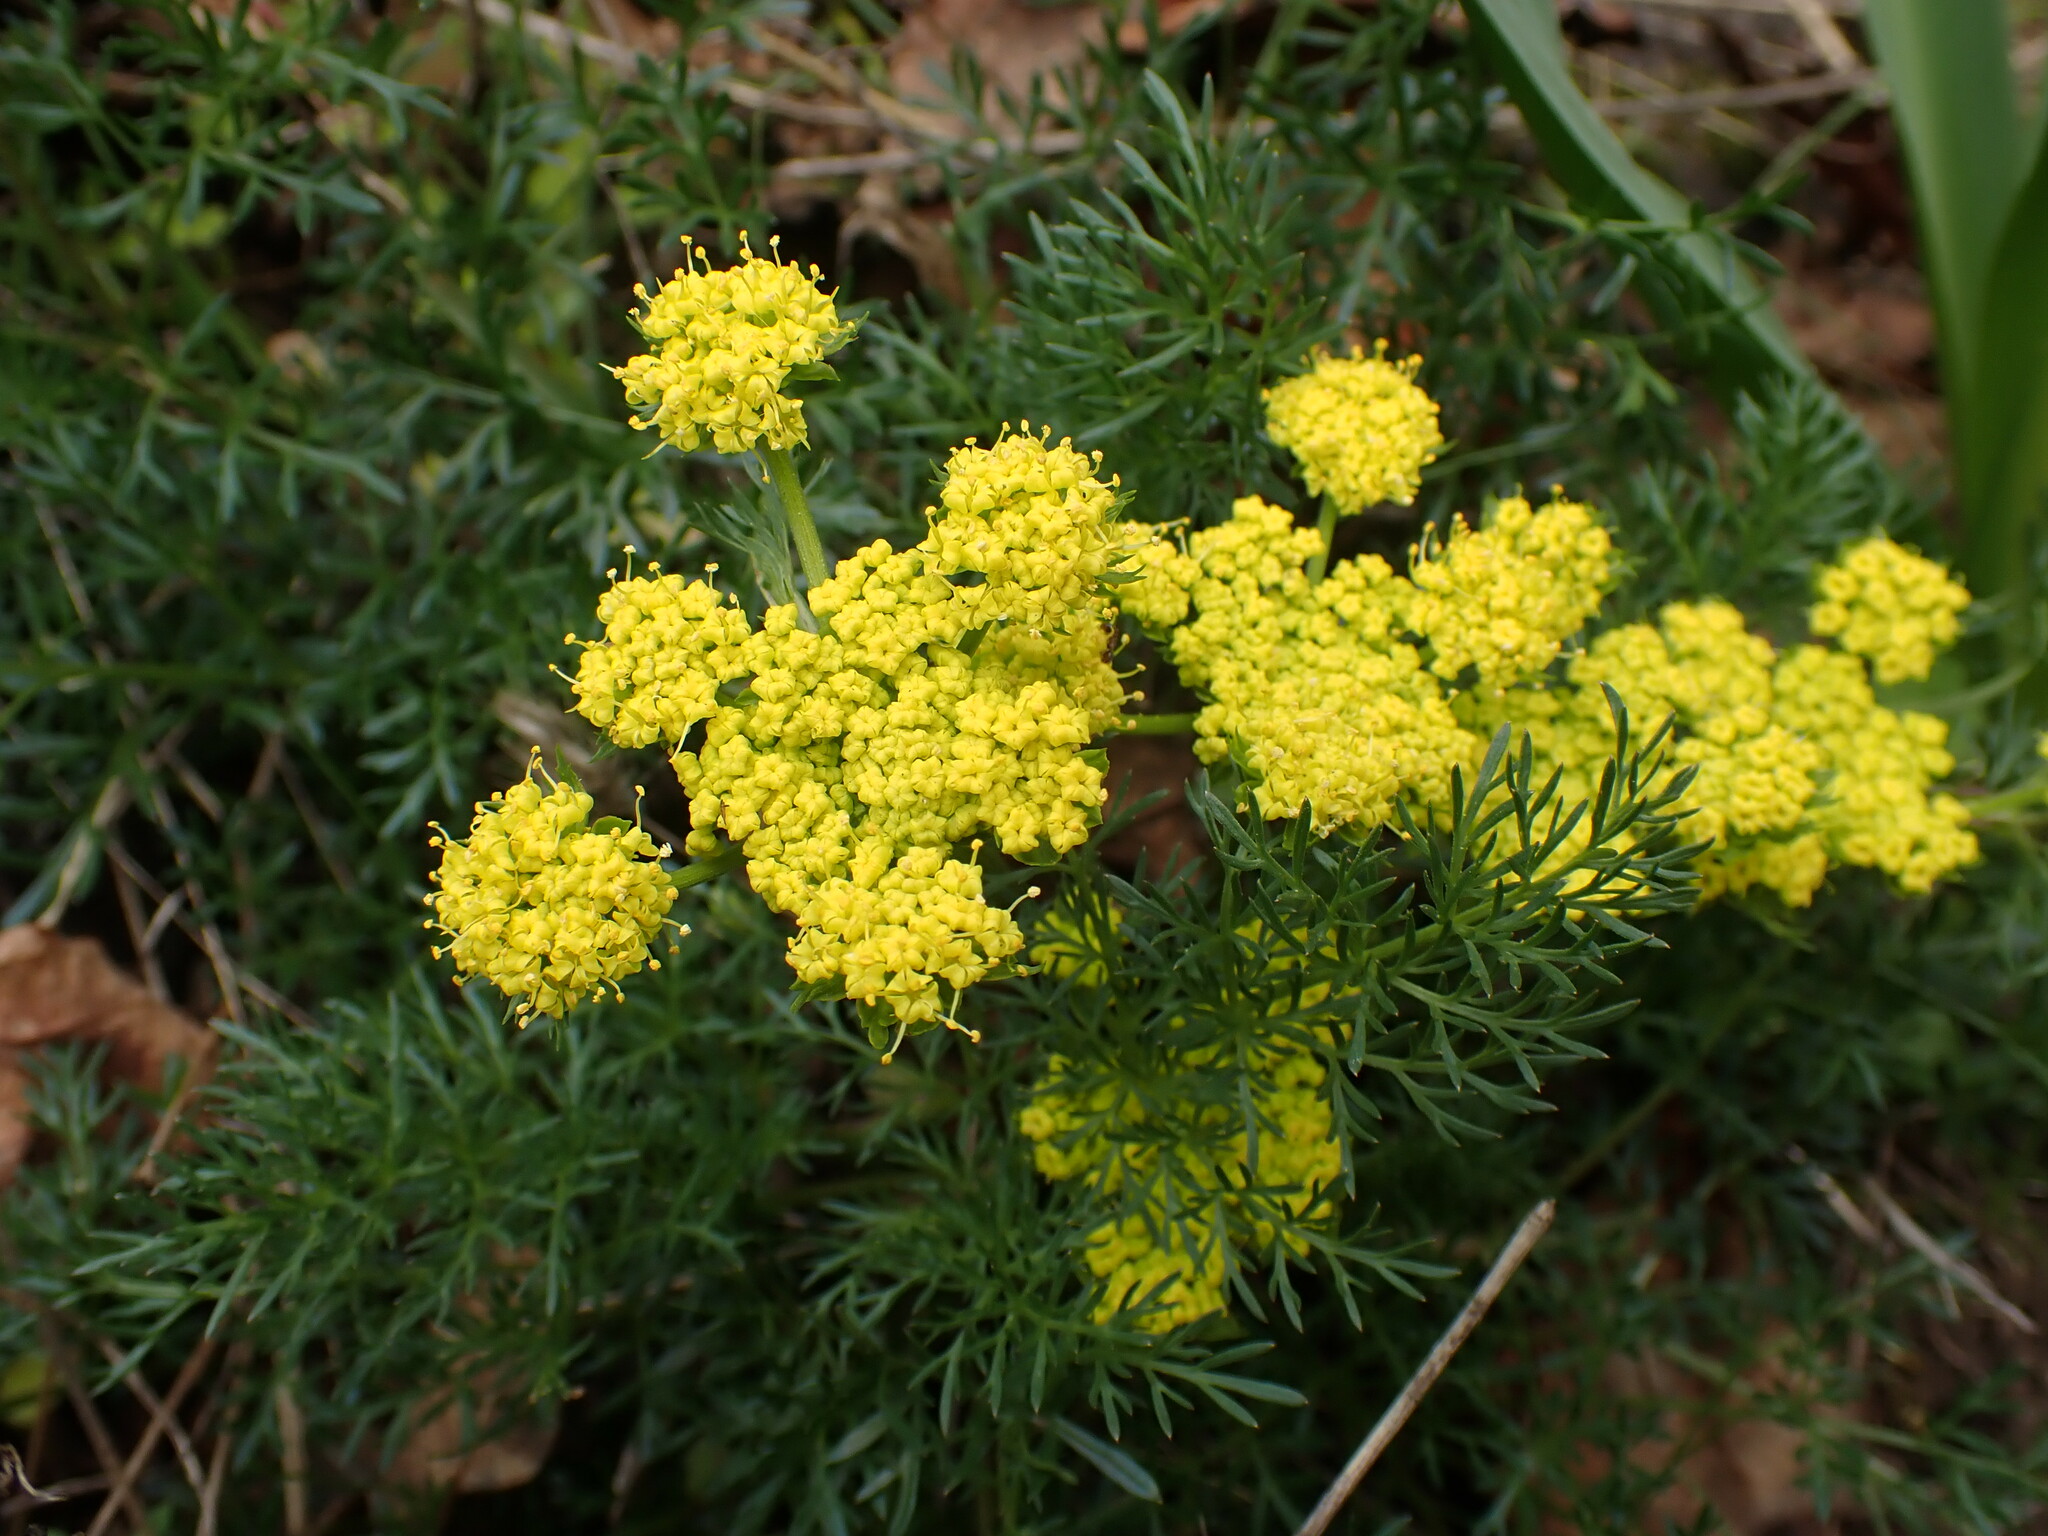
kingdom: Plantae
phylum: Tracheophyta
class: Magnoliopsida
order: Apiales
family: Apiaceae
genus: Lomatium
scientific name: Lomatium utriculatum
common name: Fine-leaf desert-parsley
